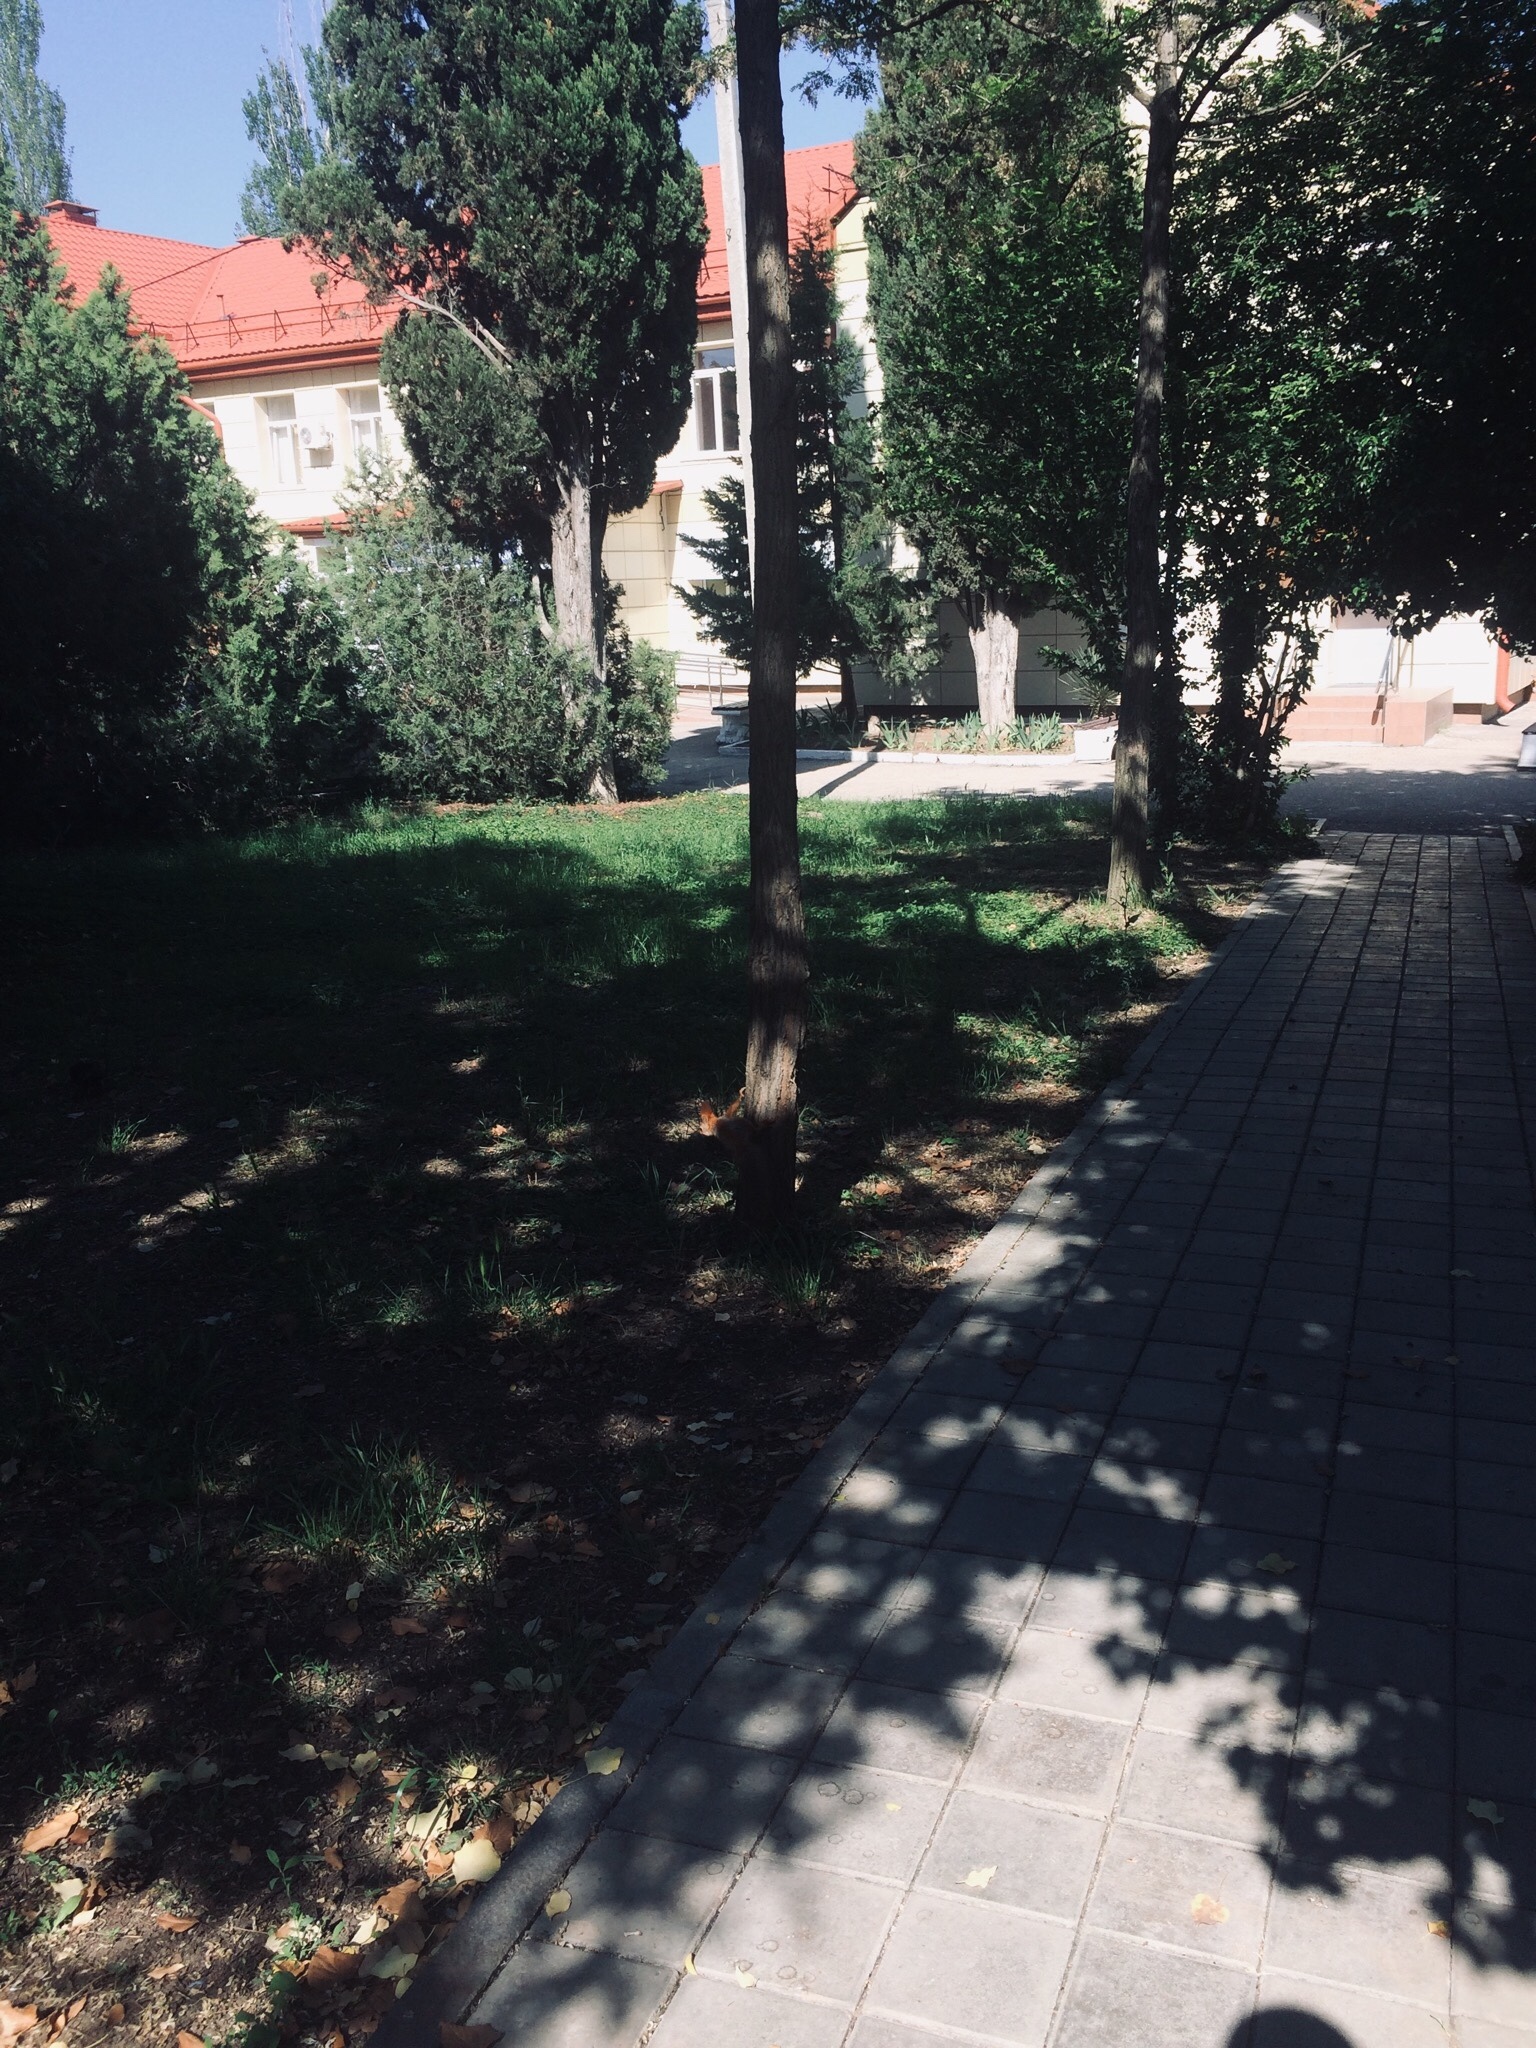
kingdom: Animalia
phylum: Chordata
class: Mammalia
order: Rodentia
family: Sciuridae
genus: Sciurus
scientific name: Sciurus vulgaris
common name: Eurasian red squirrel
